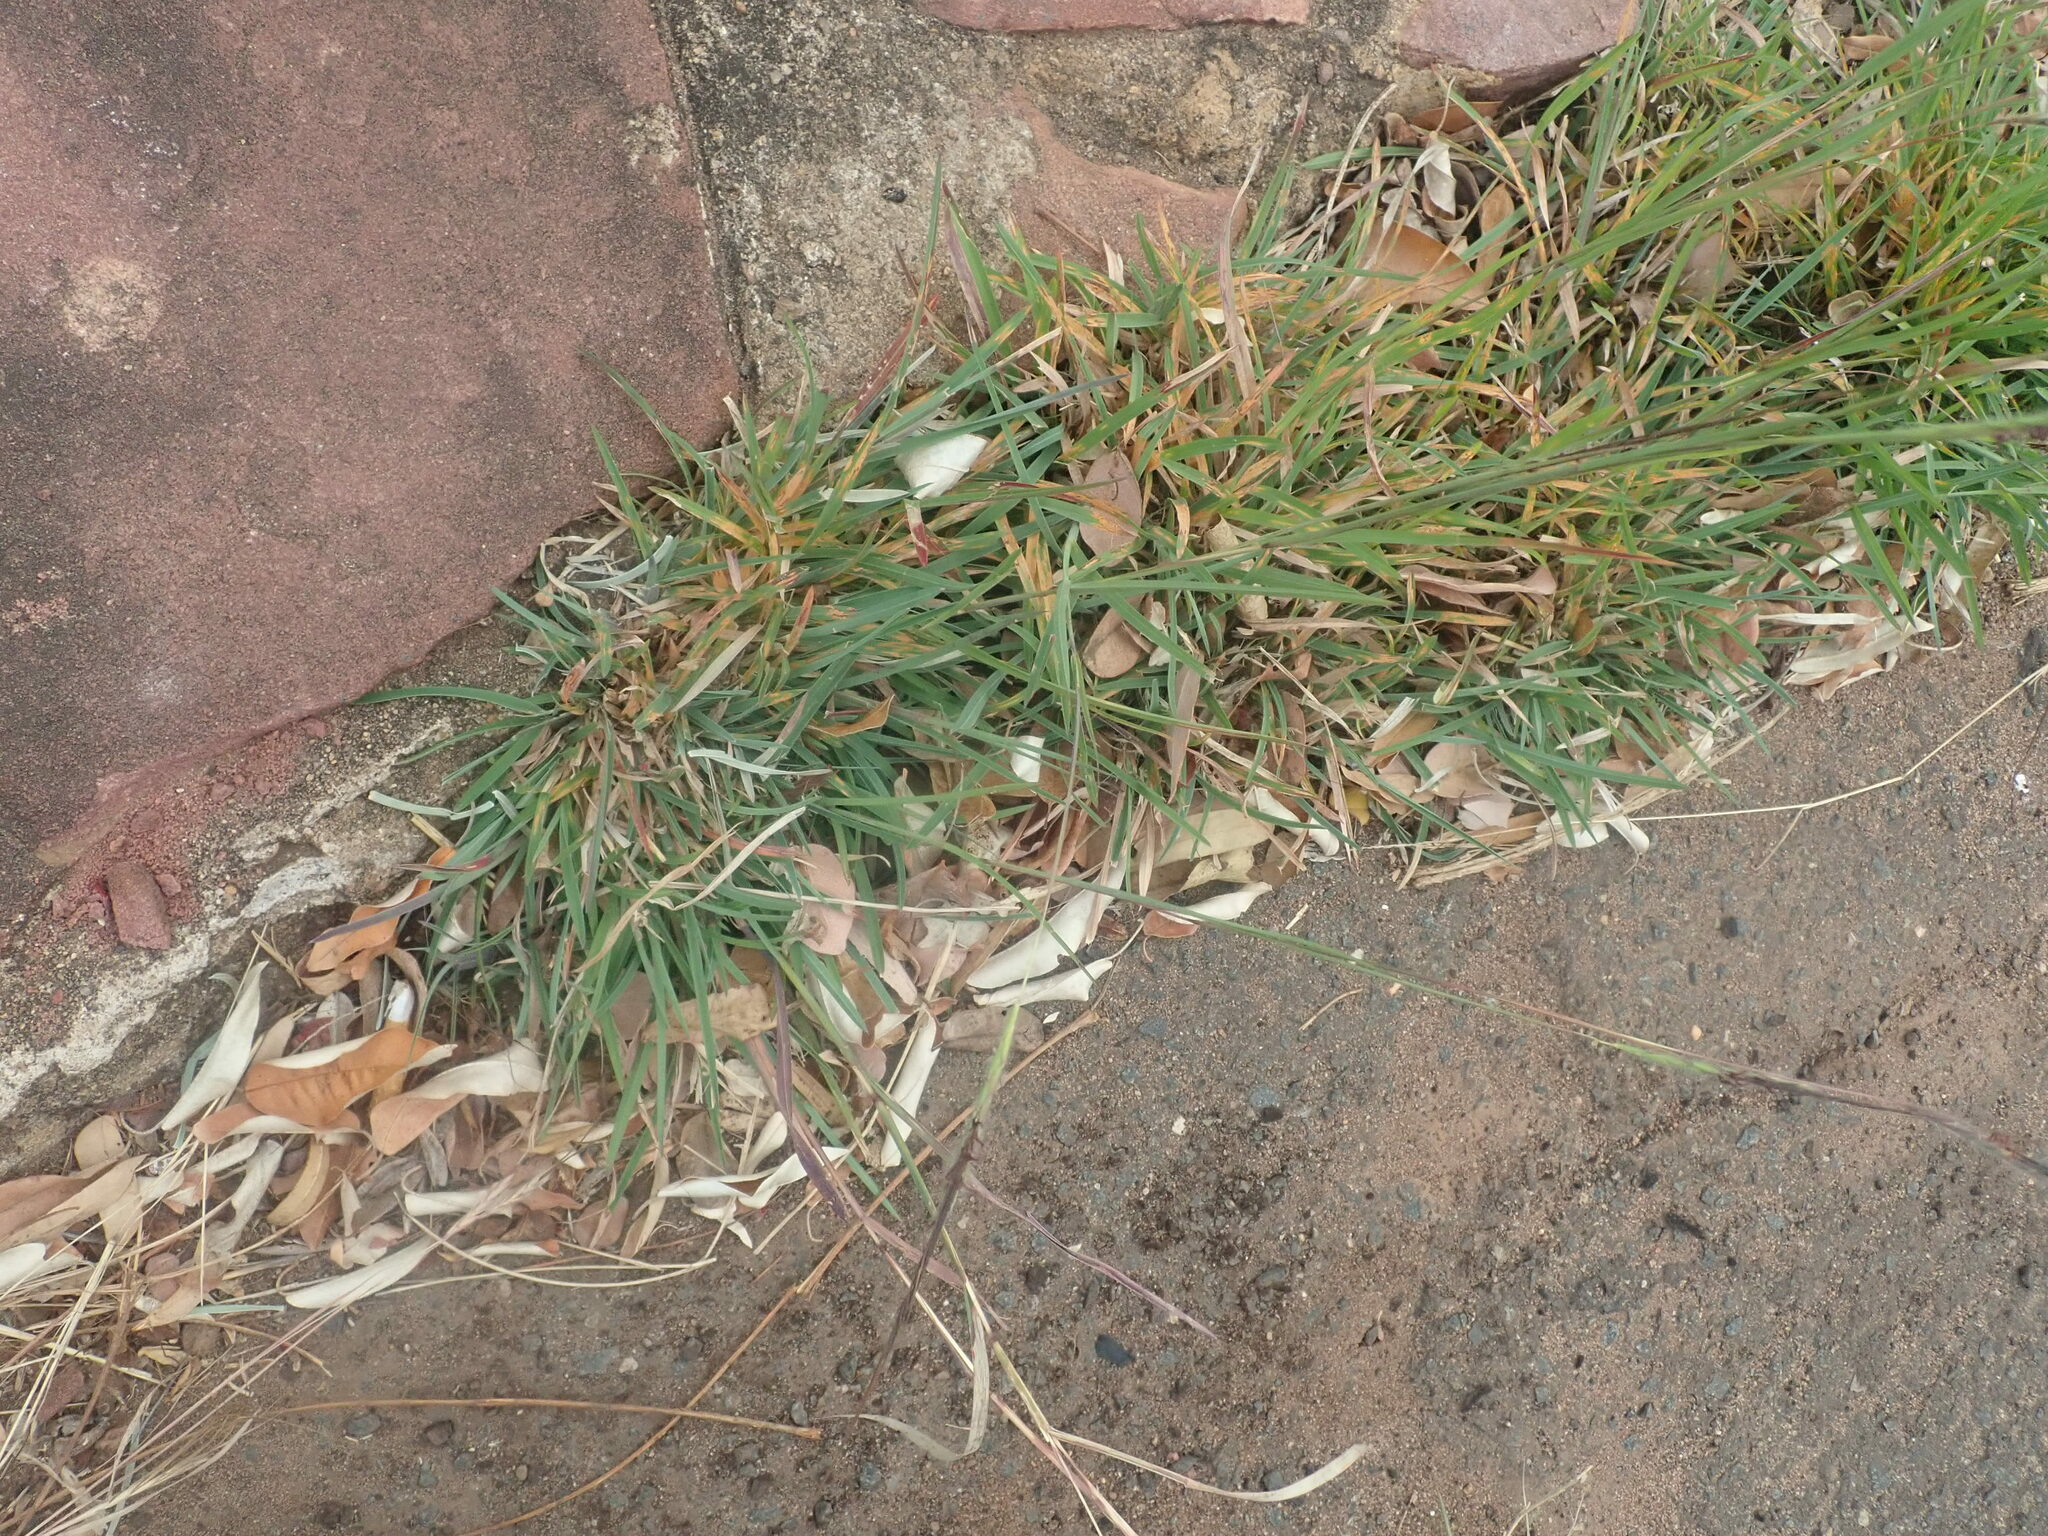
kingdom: Plantae
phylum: Tracheophyta
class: Liliopsida
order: Poales
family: Poaceae
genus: Heteropogon
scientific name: Heteropogon contortus
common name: Tanglehead
